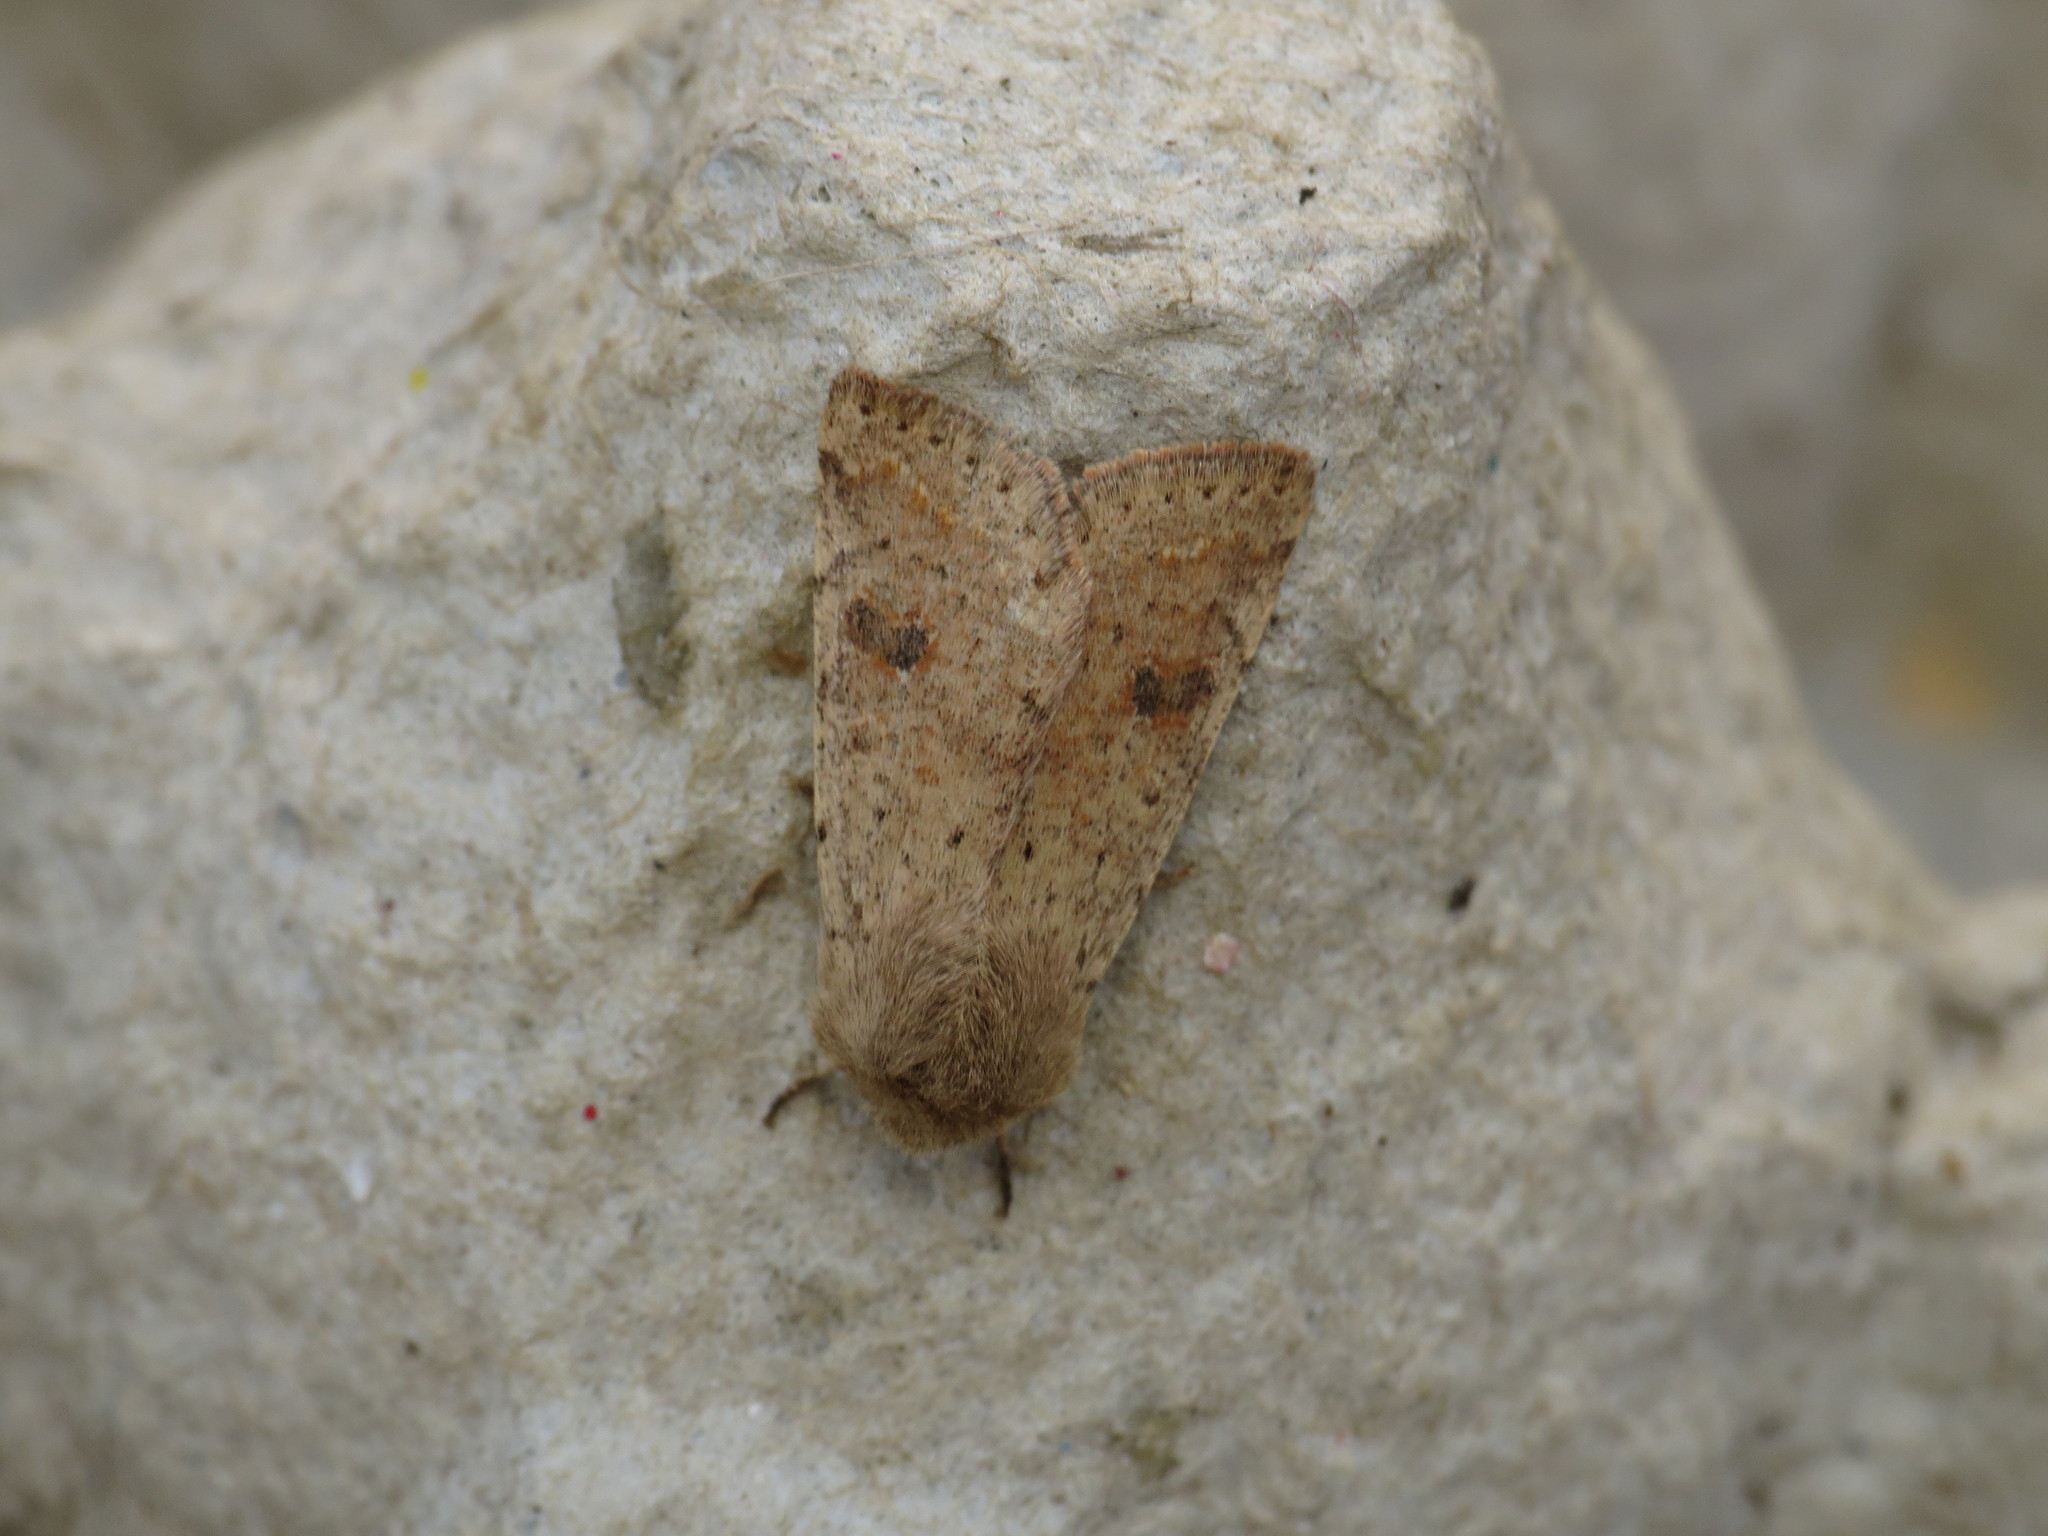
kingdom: Animalia
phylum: Arthropoda
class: Insecta
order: Lepidoptera
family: Noctuidae
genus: Orthosia
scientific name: Orthosia cruda
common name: Small quaker
